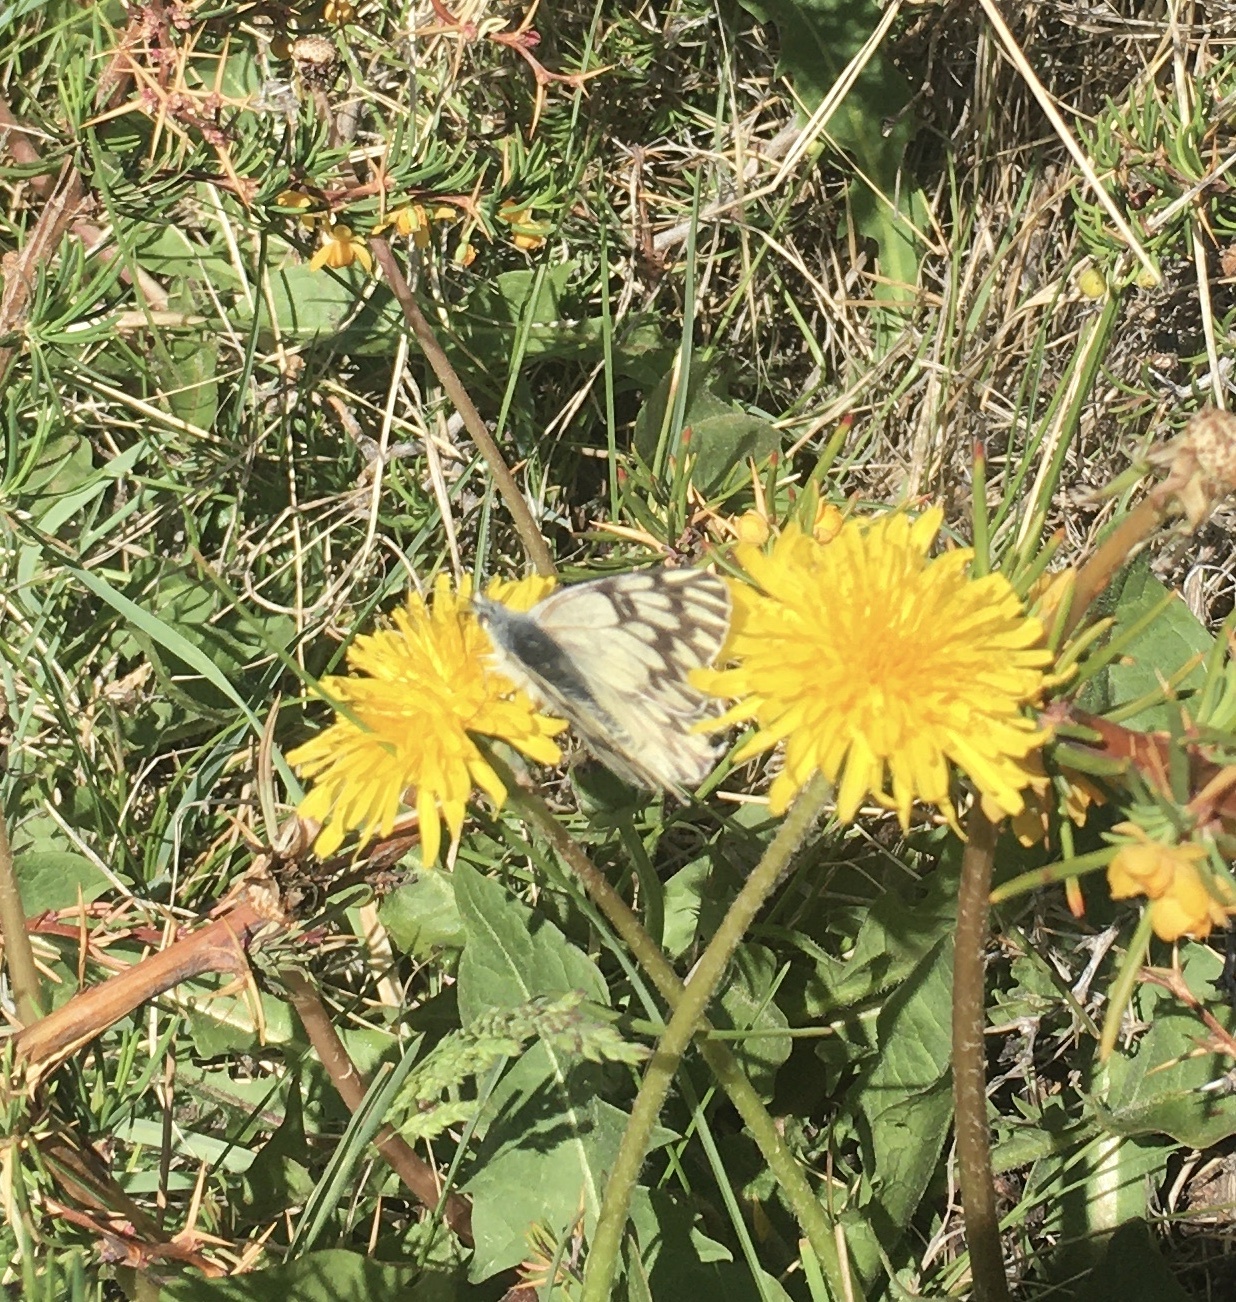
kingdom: Animalia
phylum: Arthropoda
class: Insecta
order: Lepidoptera
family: Pieridae
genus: Tatochila
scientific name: Tatochila autodice
